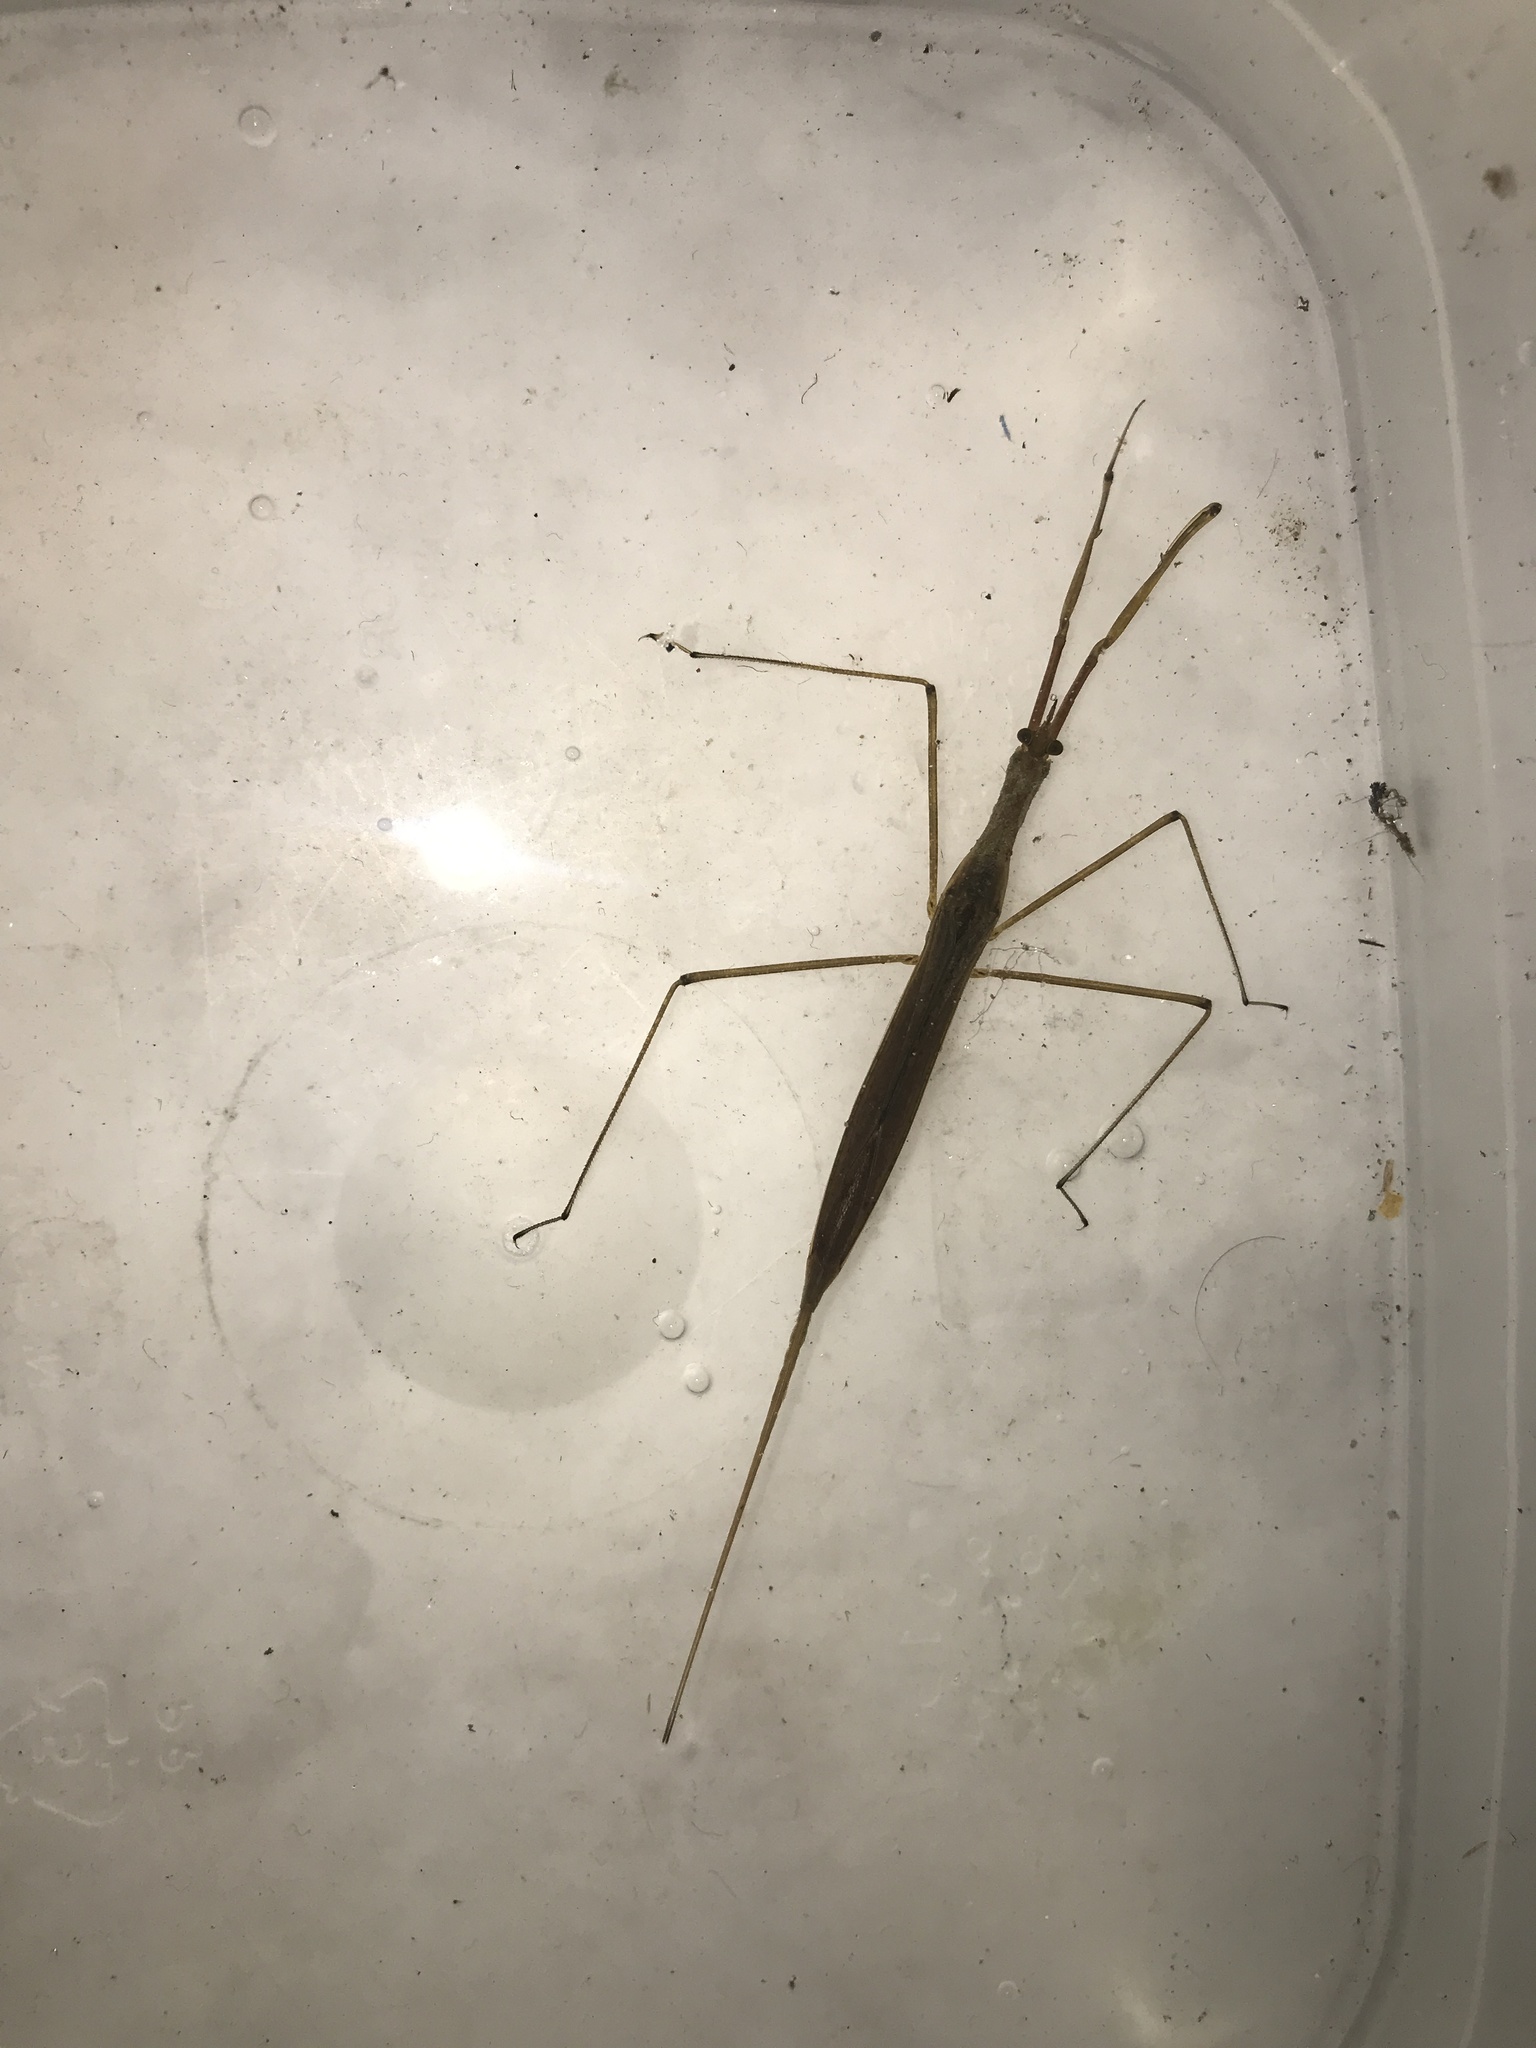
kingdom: Animalia
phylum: Arthropoda
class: Insecta
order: Hemiptera
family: Nepidae
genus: Ranatra
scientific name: Ranatra fusca
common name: Brown waterscorpion
